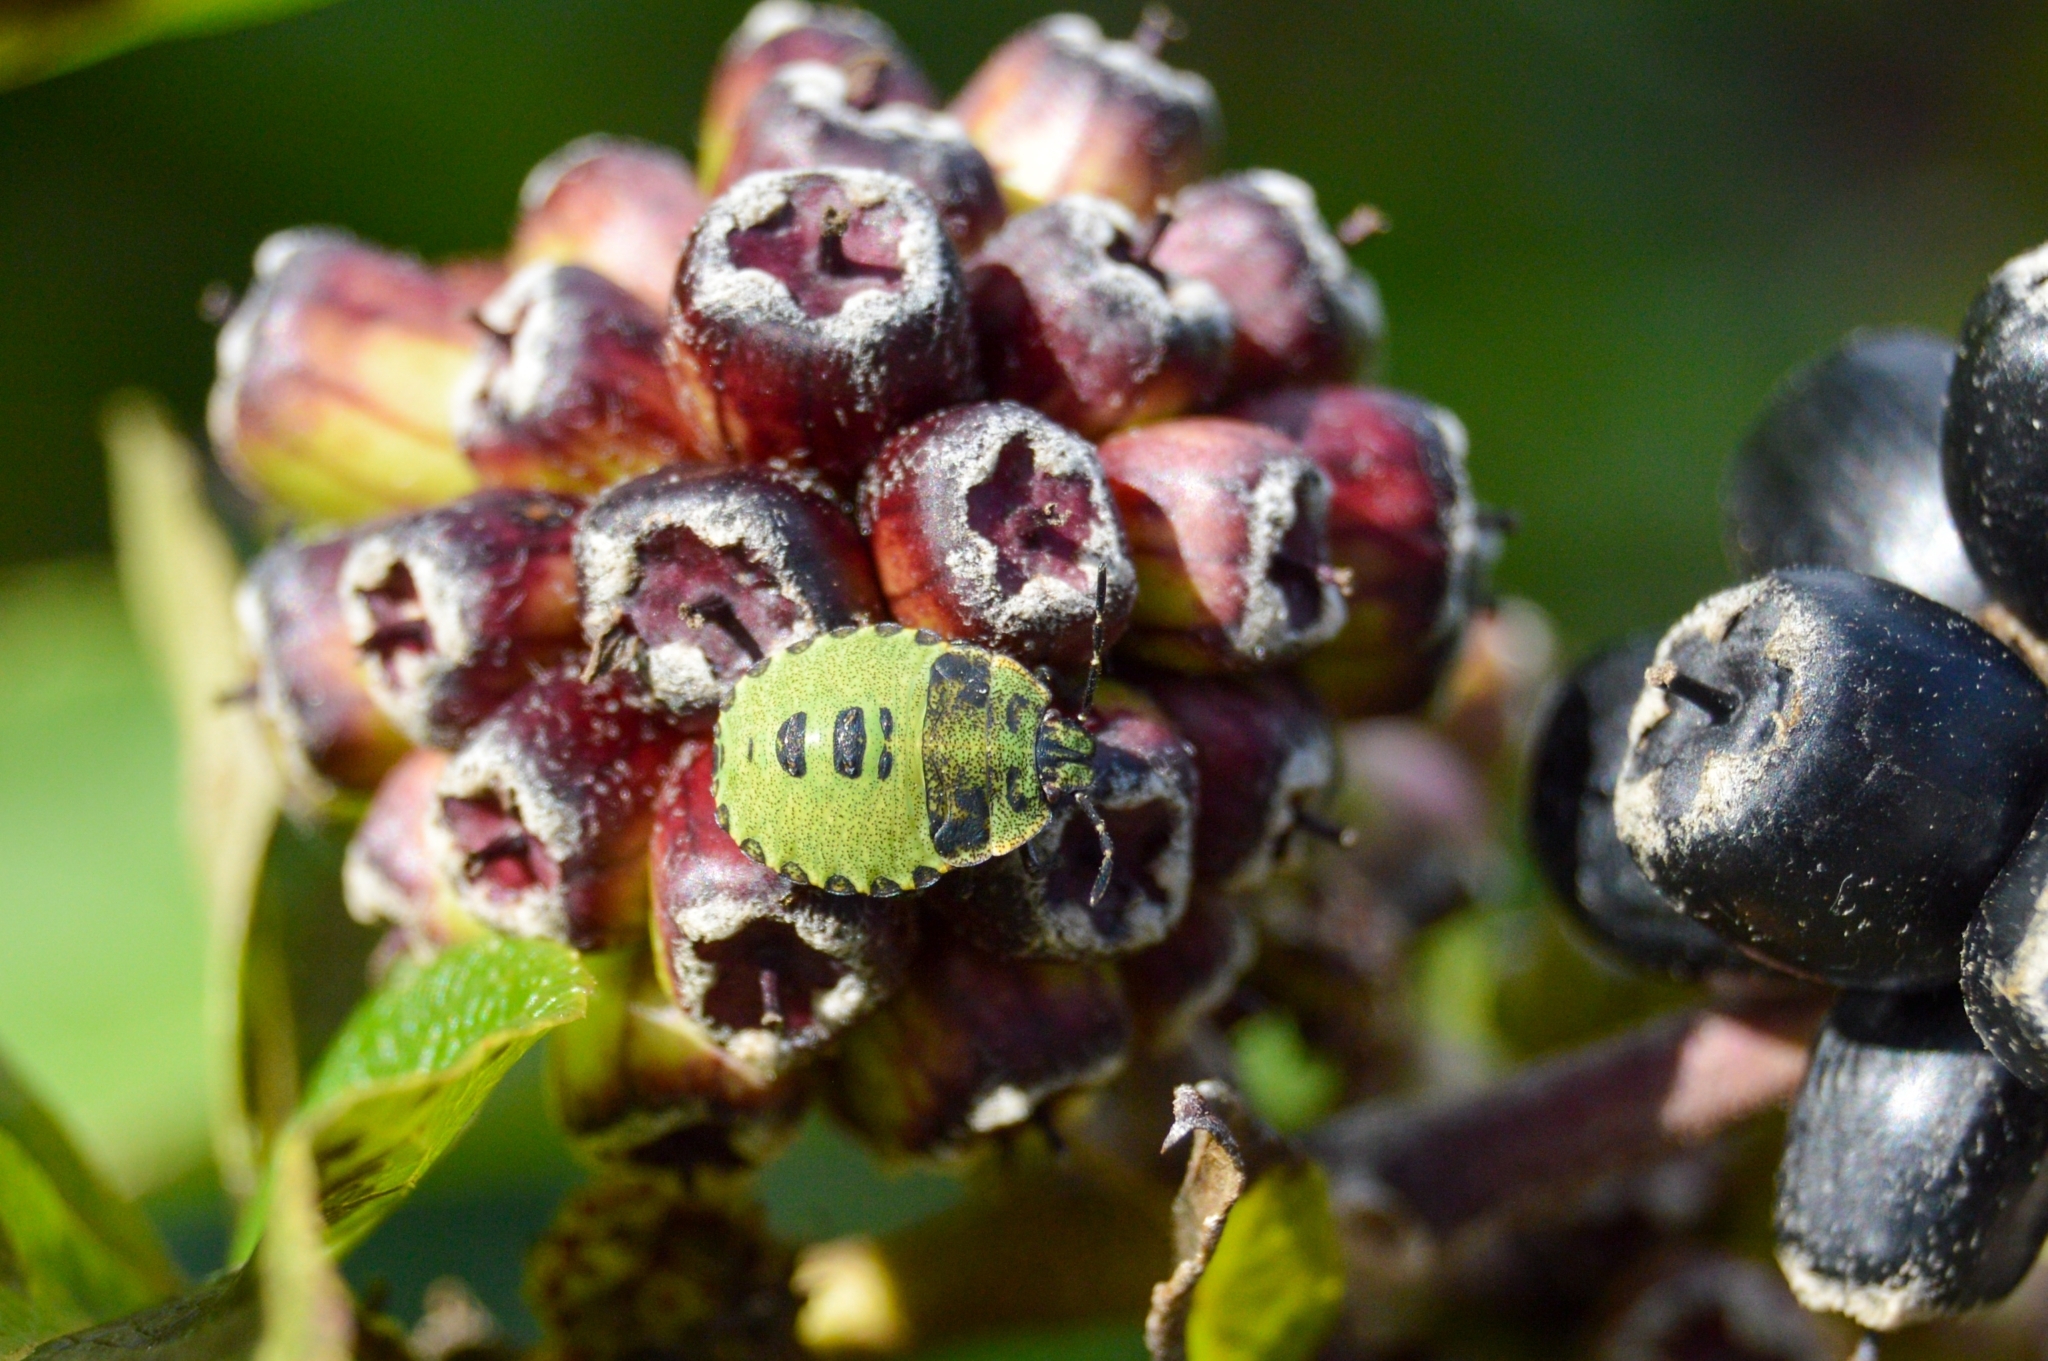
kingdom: Animalia
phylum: Arthropoda
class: Insecta
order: Hemiptera
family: Pentatomidae
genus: Palomena
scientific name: Palomena prasina
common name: Green shieldbug
